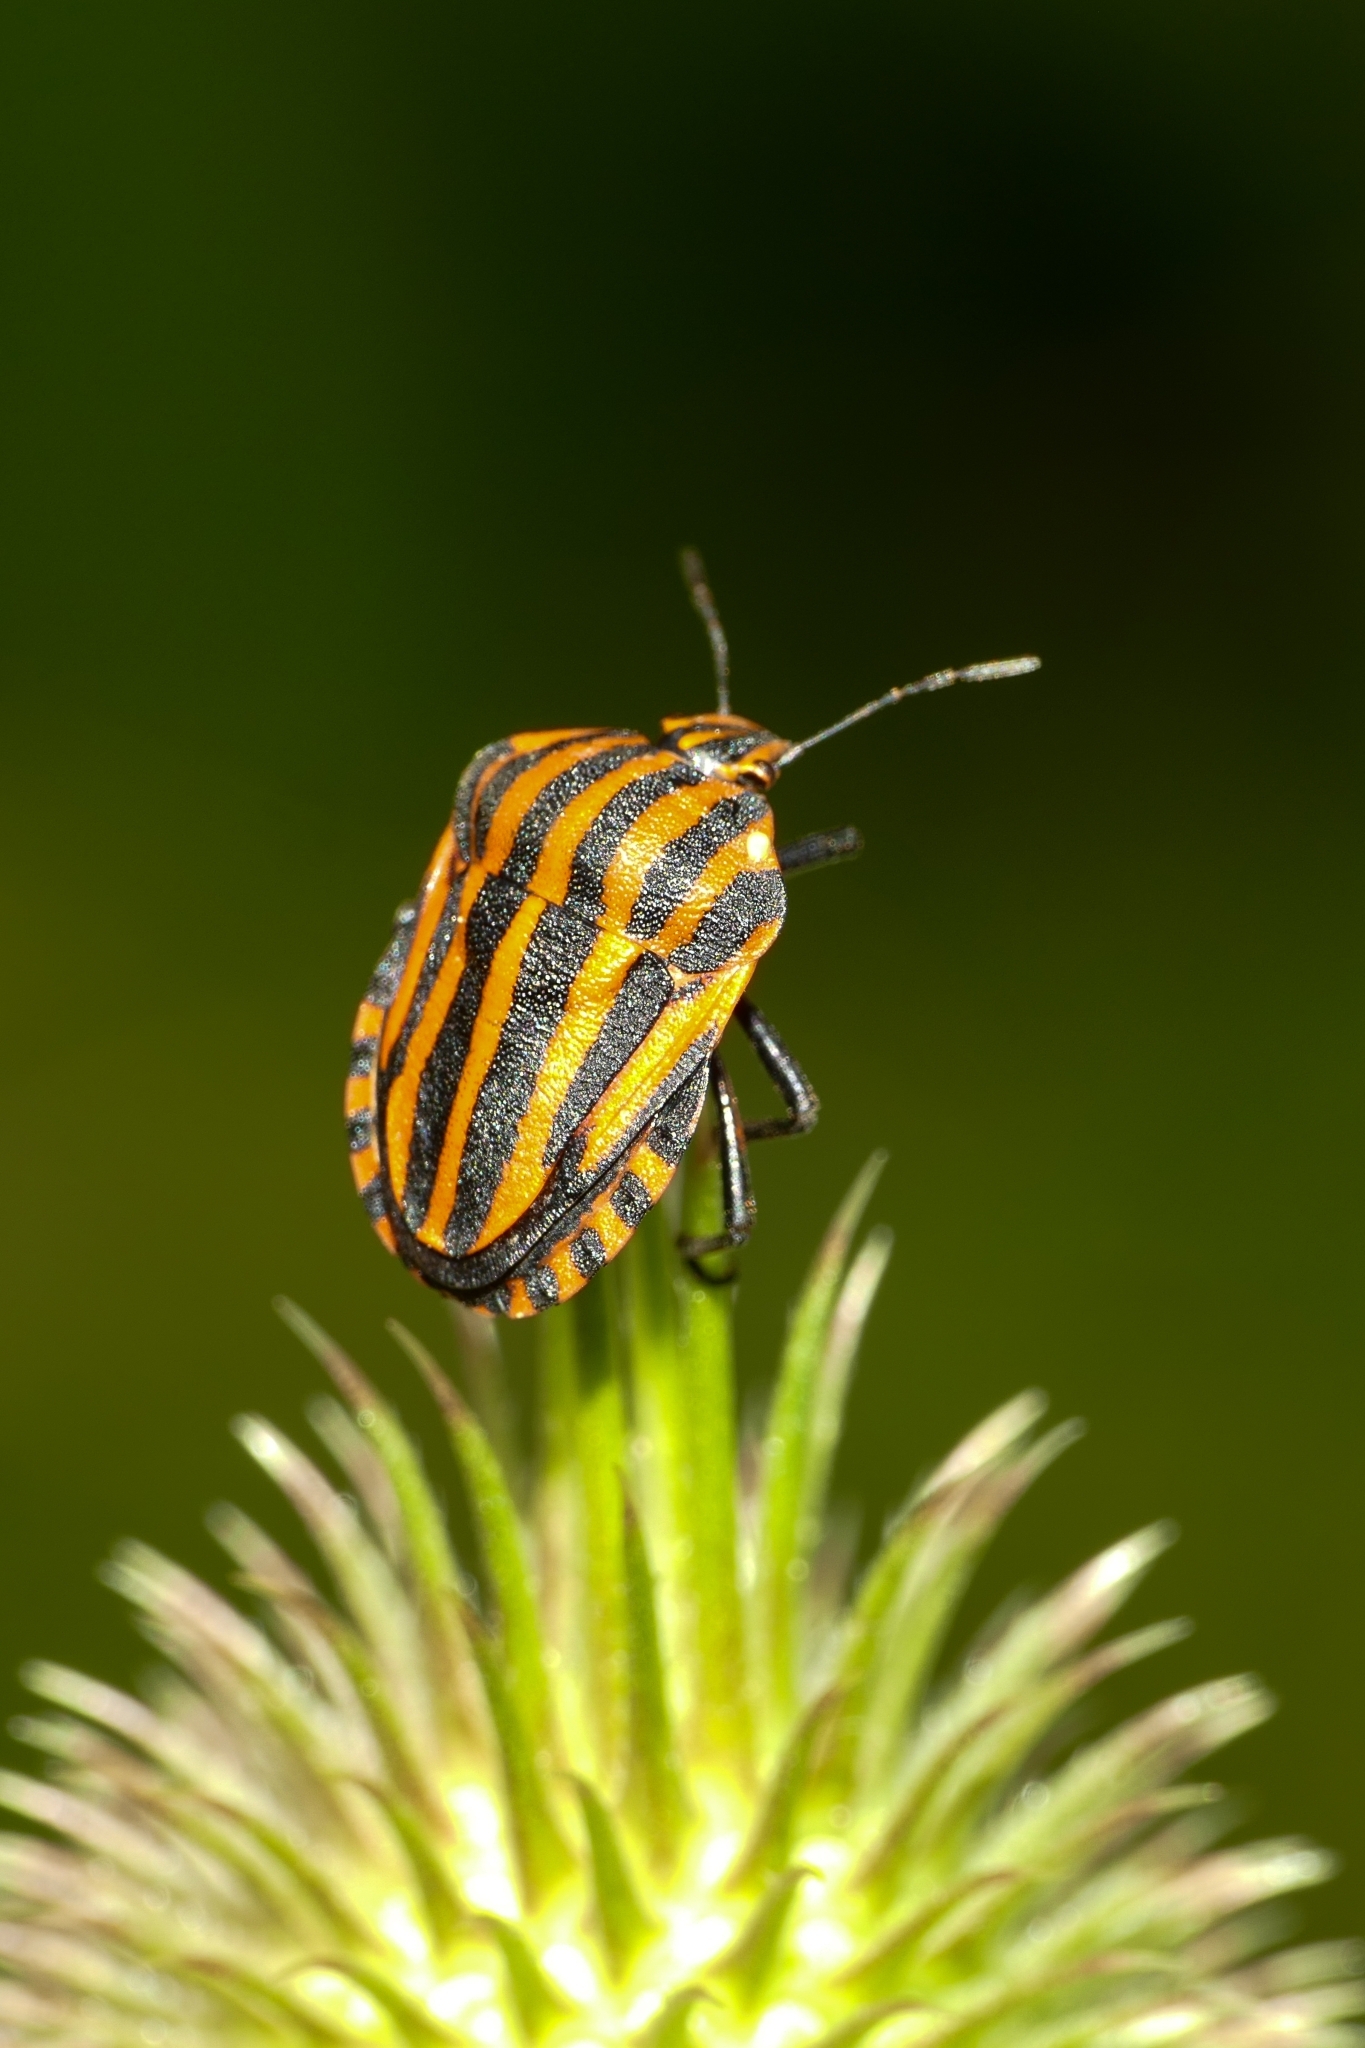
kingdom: Animalia
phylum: Arthropoda
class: Insecta
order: Hemiptera
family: Pentatomidae
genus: Graphosoma
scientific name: Graphosoma italicum
